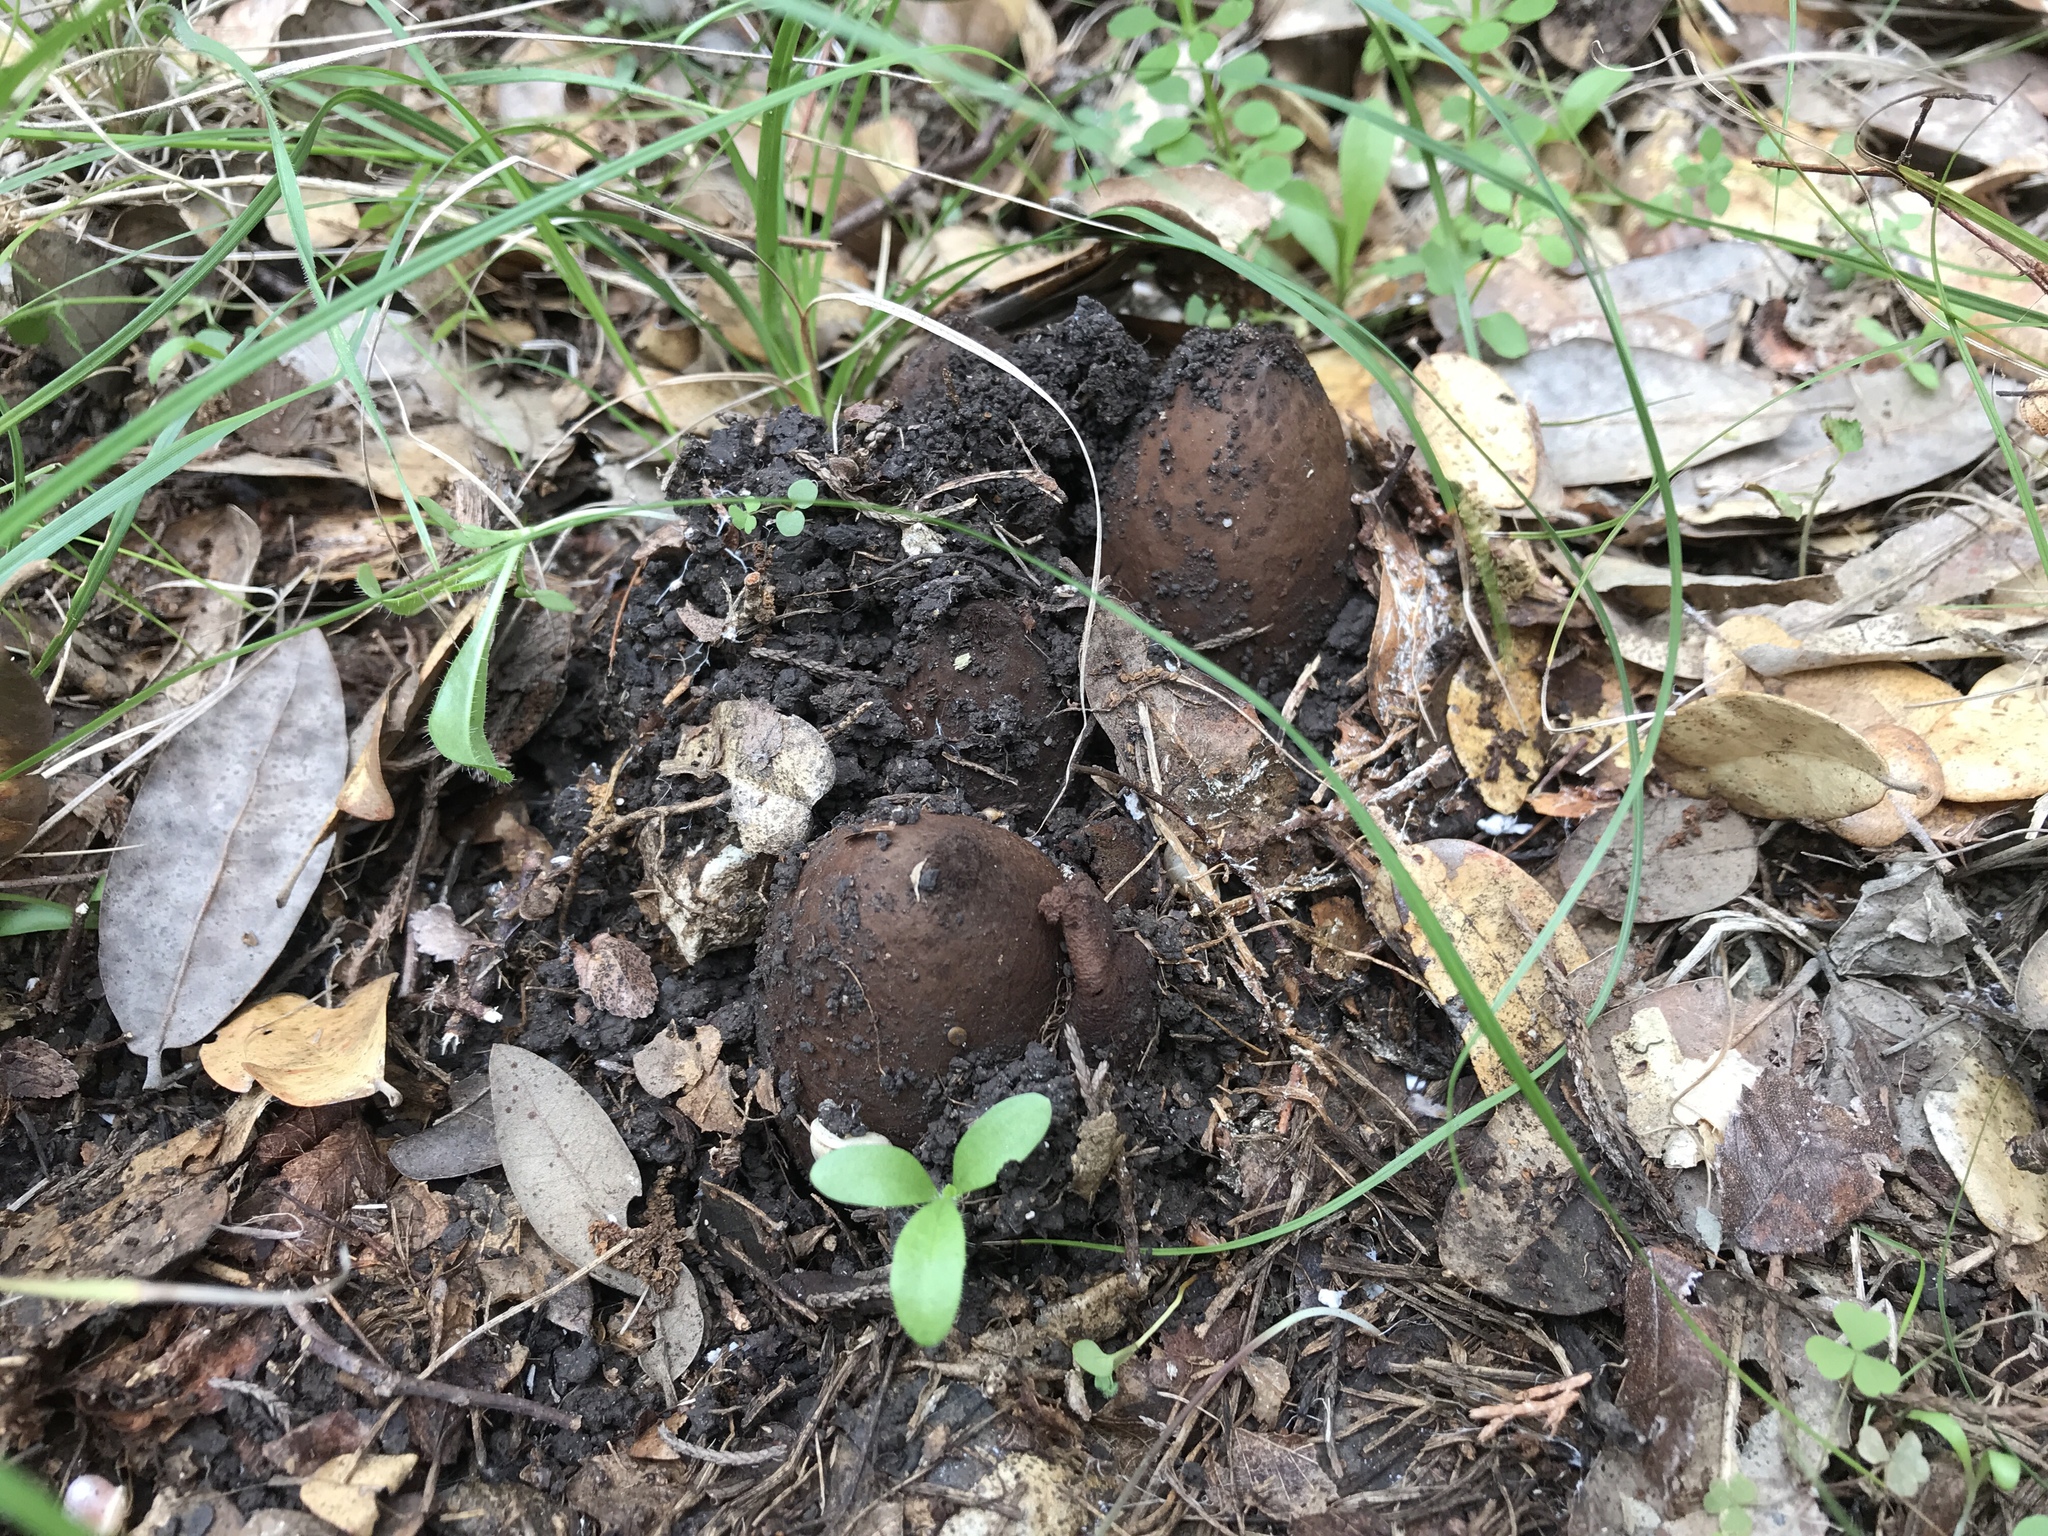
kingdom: Fungi
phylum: Ascomycota
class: Pezizomycetes
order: Pezizales
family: Chorioactidaceae
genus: Chorioactis
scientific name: Chorioactis geaster
